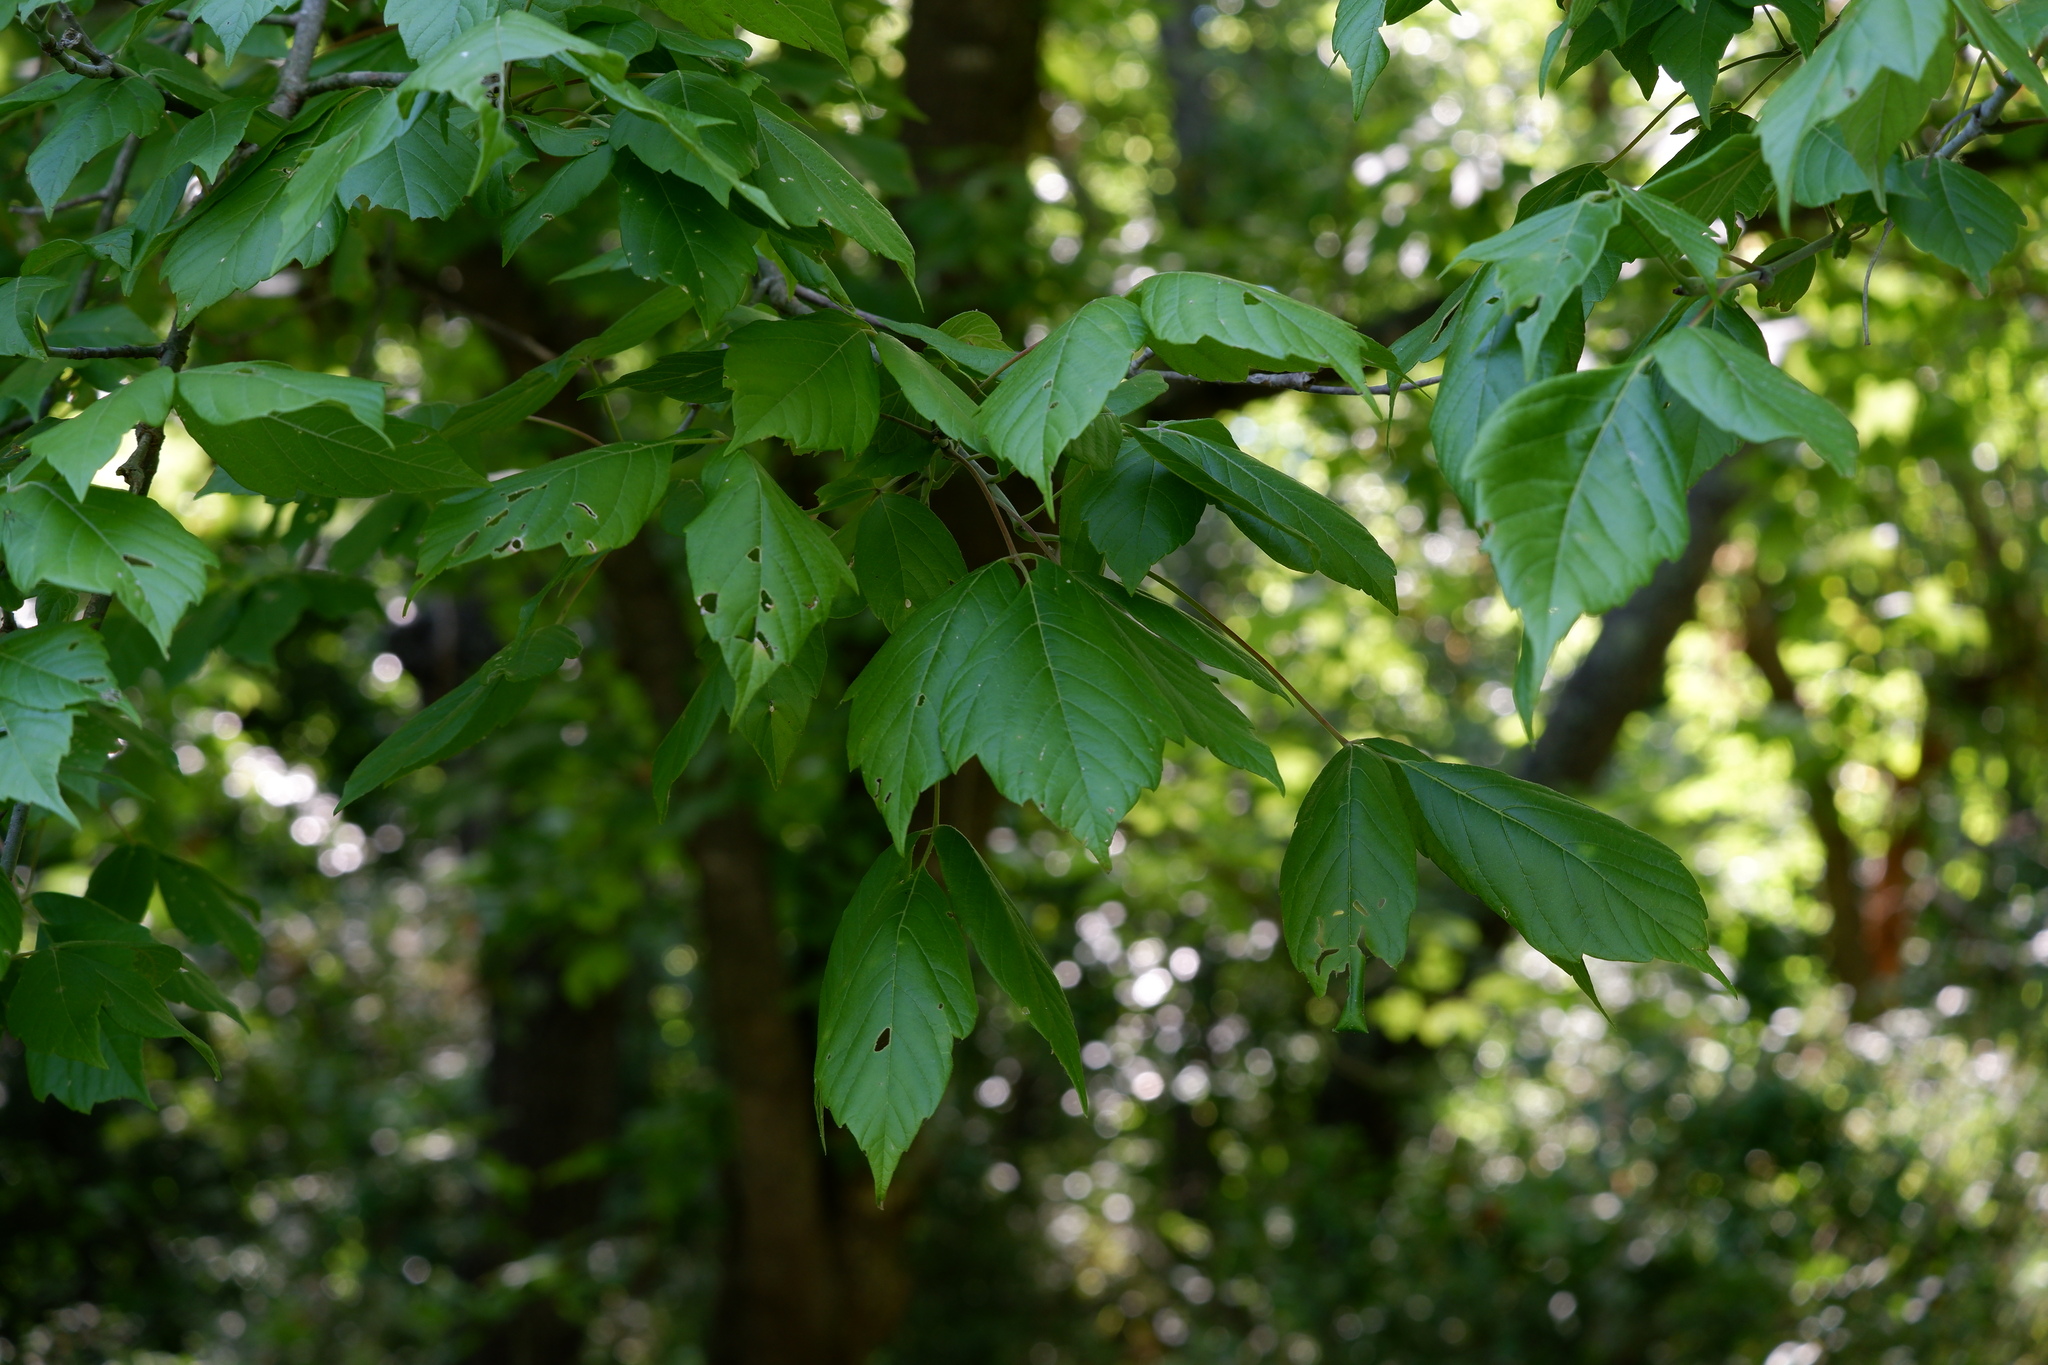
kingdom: Plantae
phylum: Tracheophyta
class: Magnoliopsida
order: Sapindales
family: Sapindaceae
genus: Acer
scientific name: Acer negundo
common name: Ashleaf maple
